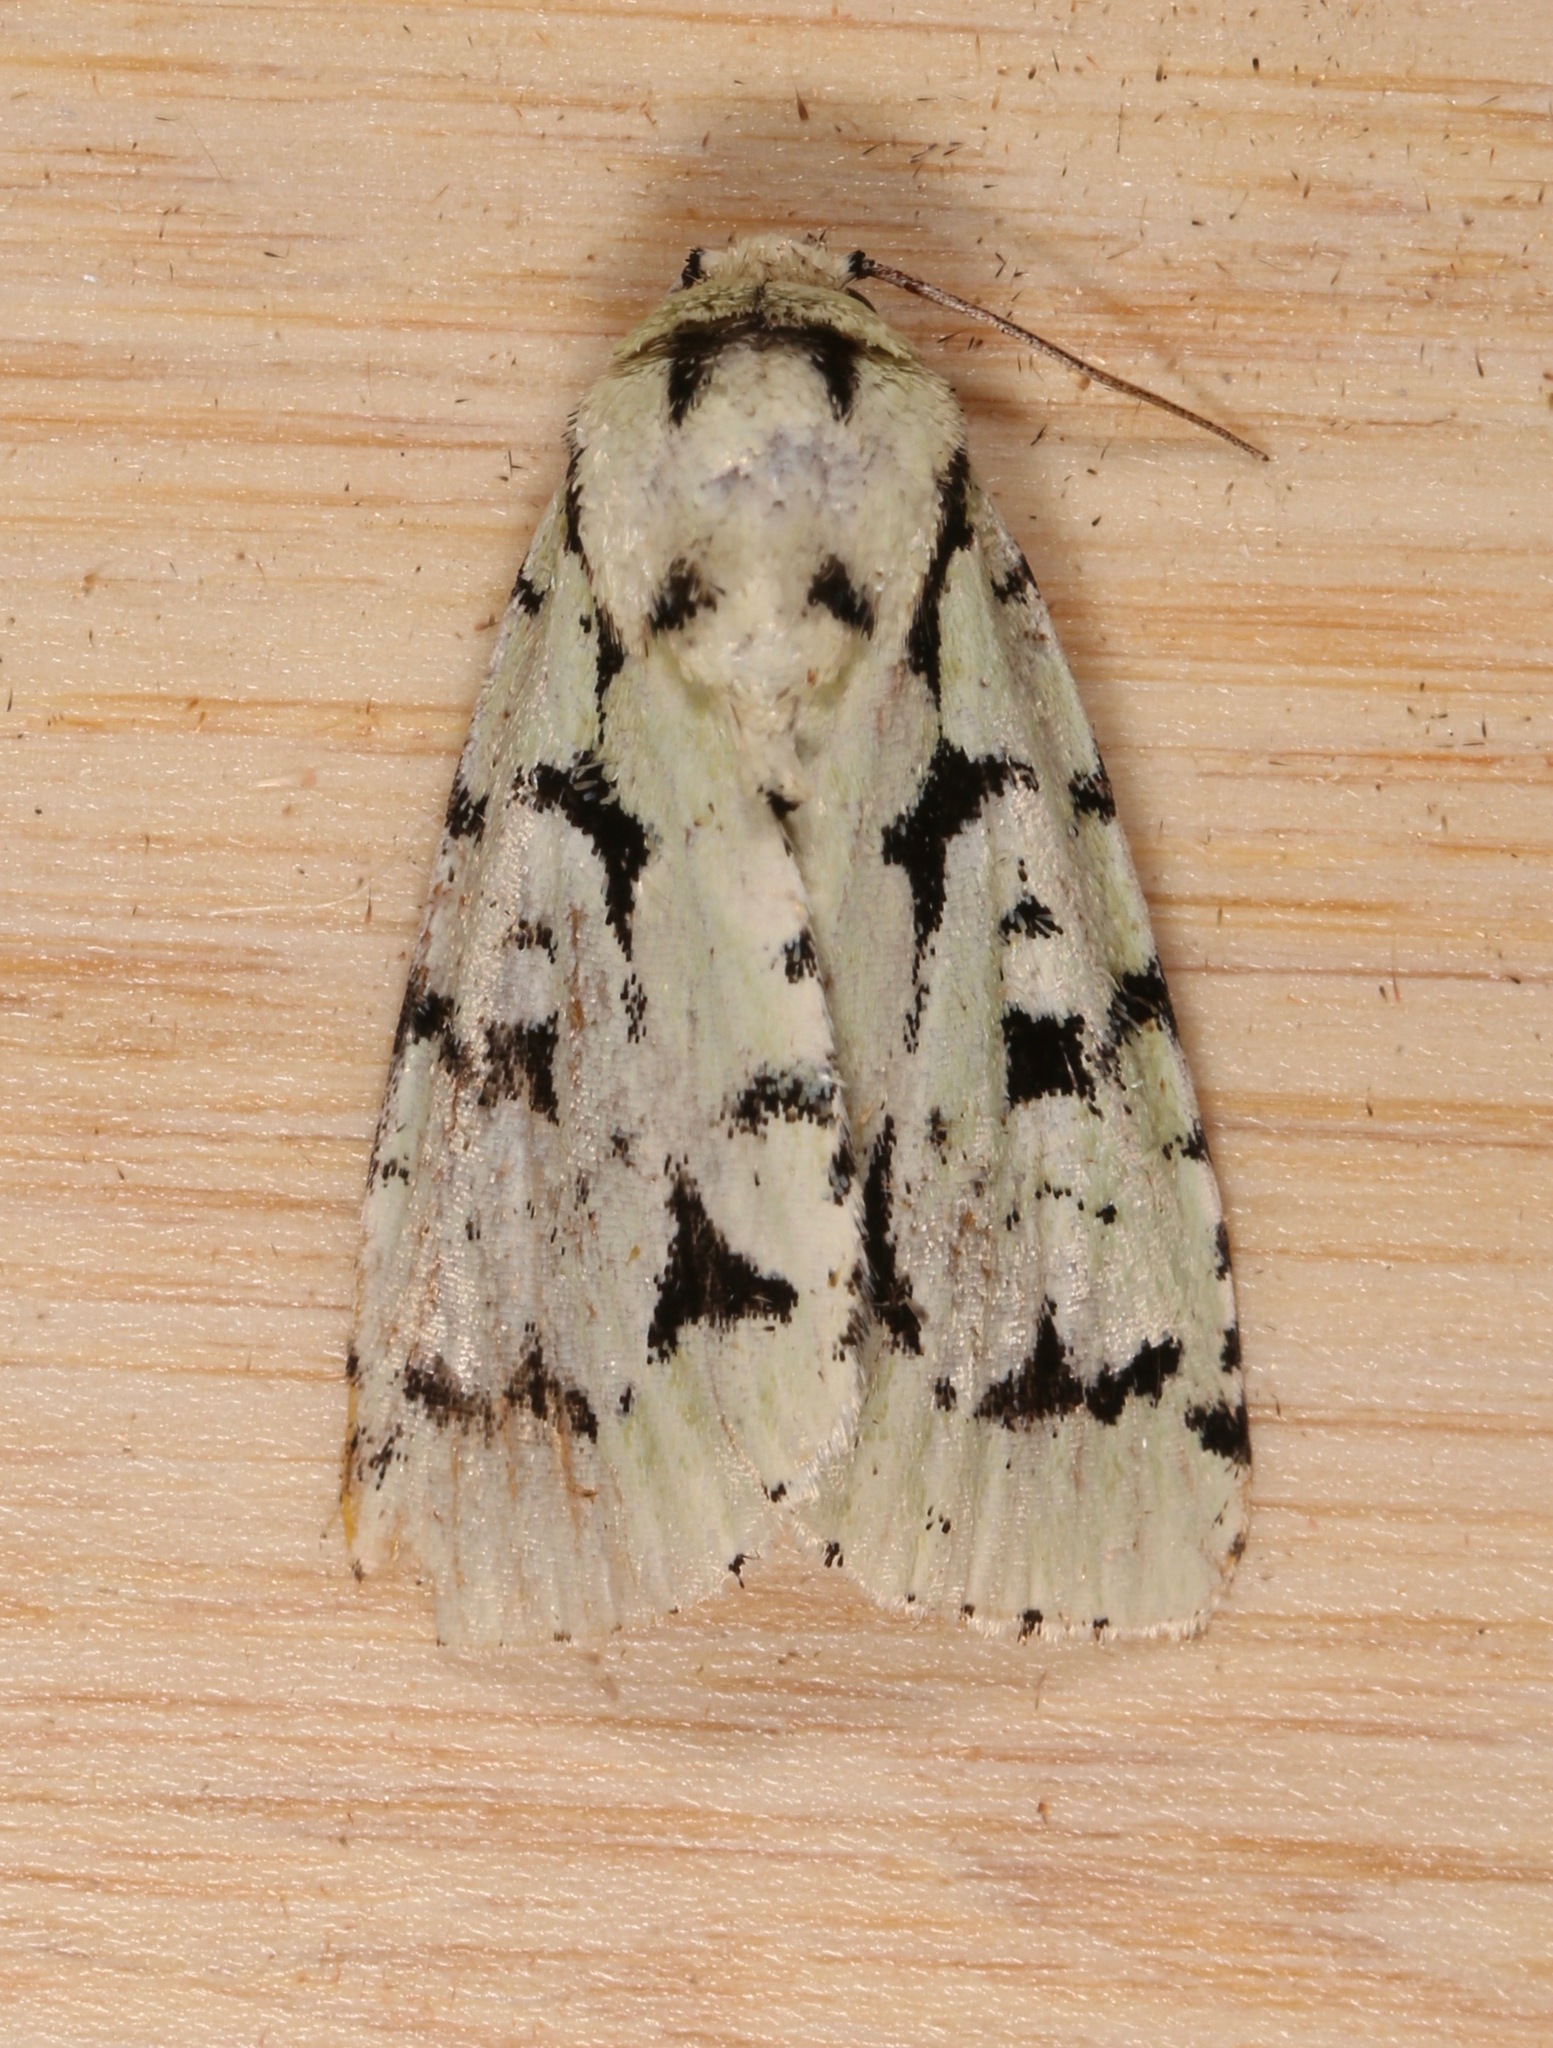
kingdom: Animalia
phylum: Arthropoda
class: Insecta
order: Lepidoptera
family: Noctuidae
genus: Acronicta
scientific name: Acronicta fallax
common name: Green marvel
